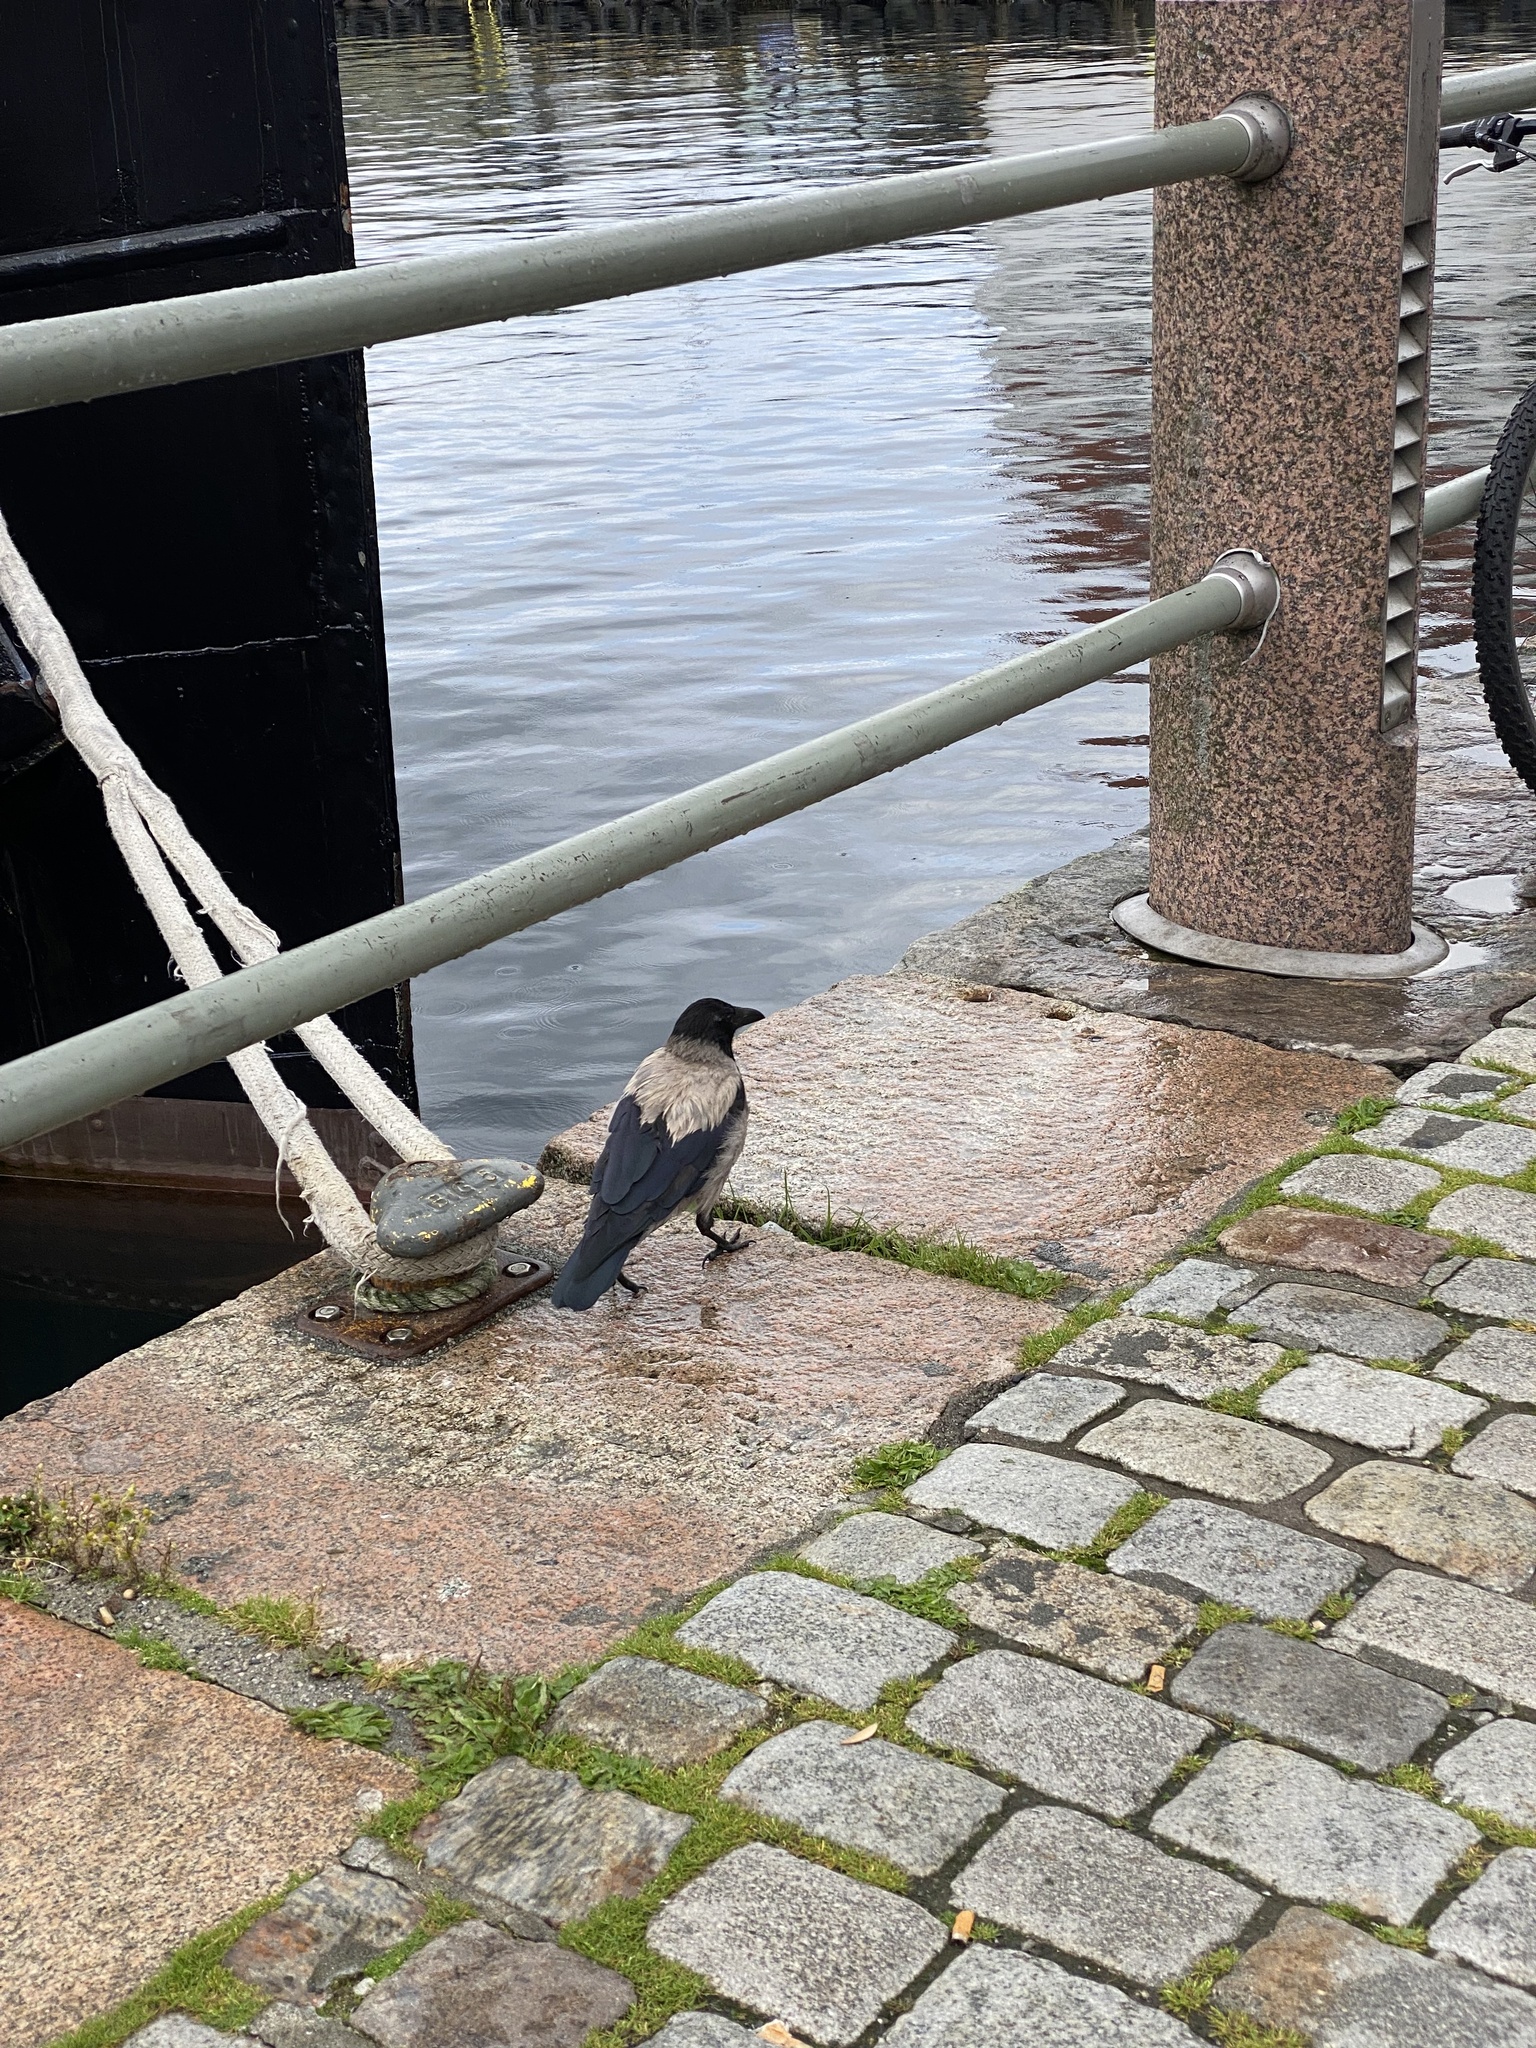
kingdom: Animalia
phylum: Chordata
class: Aves
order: Passeriformes
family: Corvidae
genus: Corvus
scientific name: Corvus cornix
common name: Hooded crow
